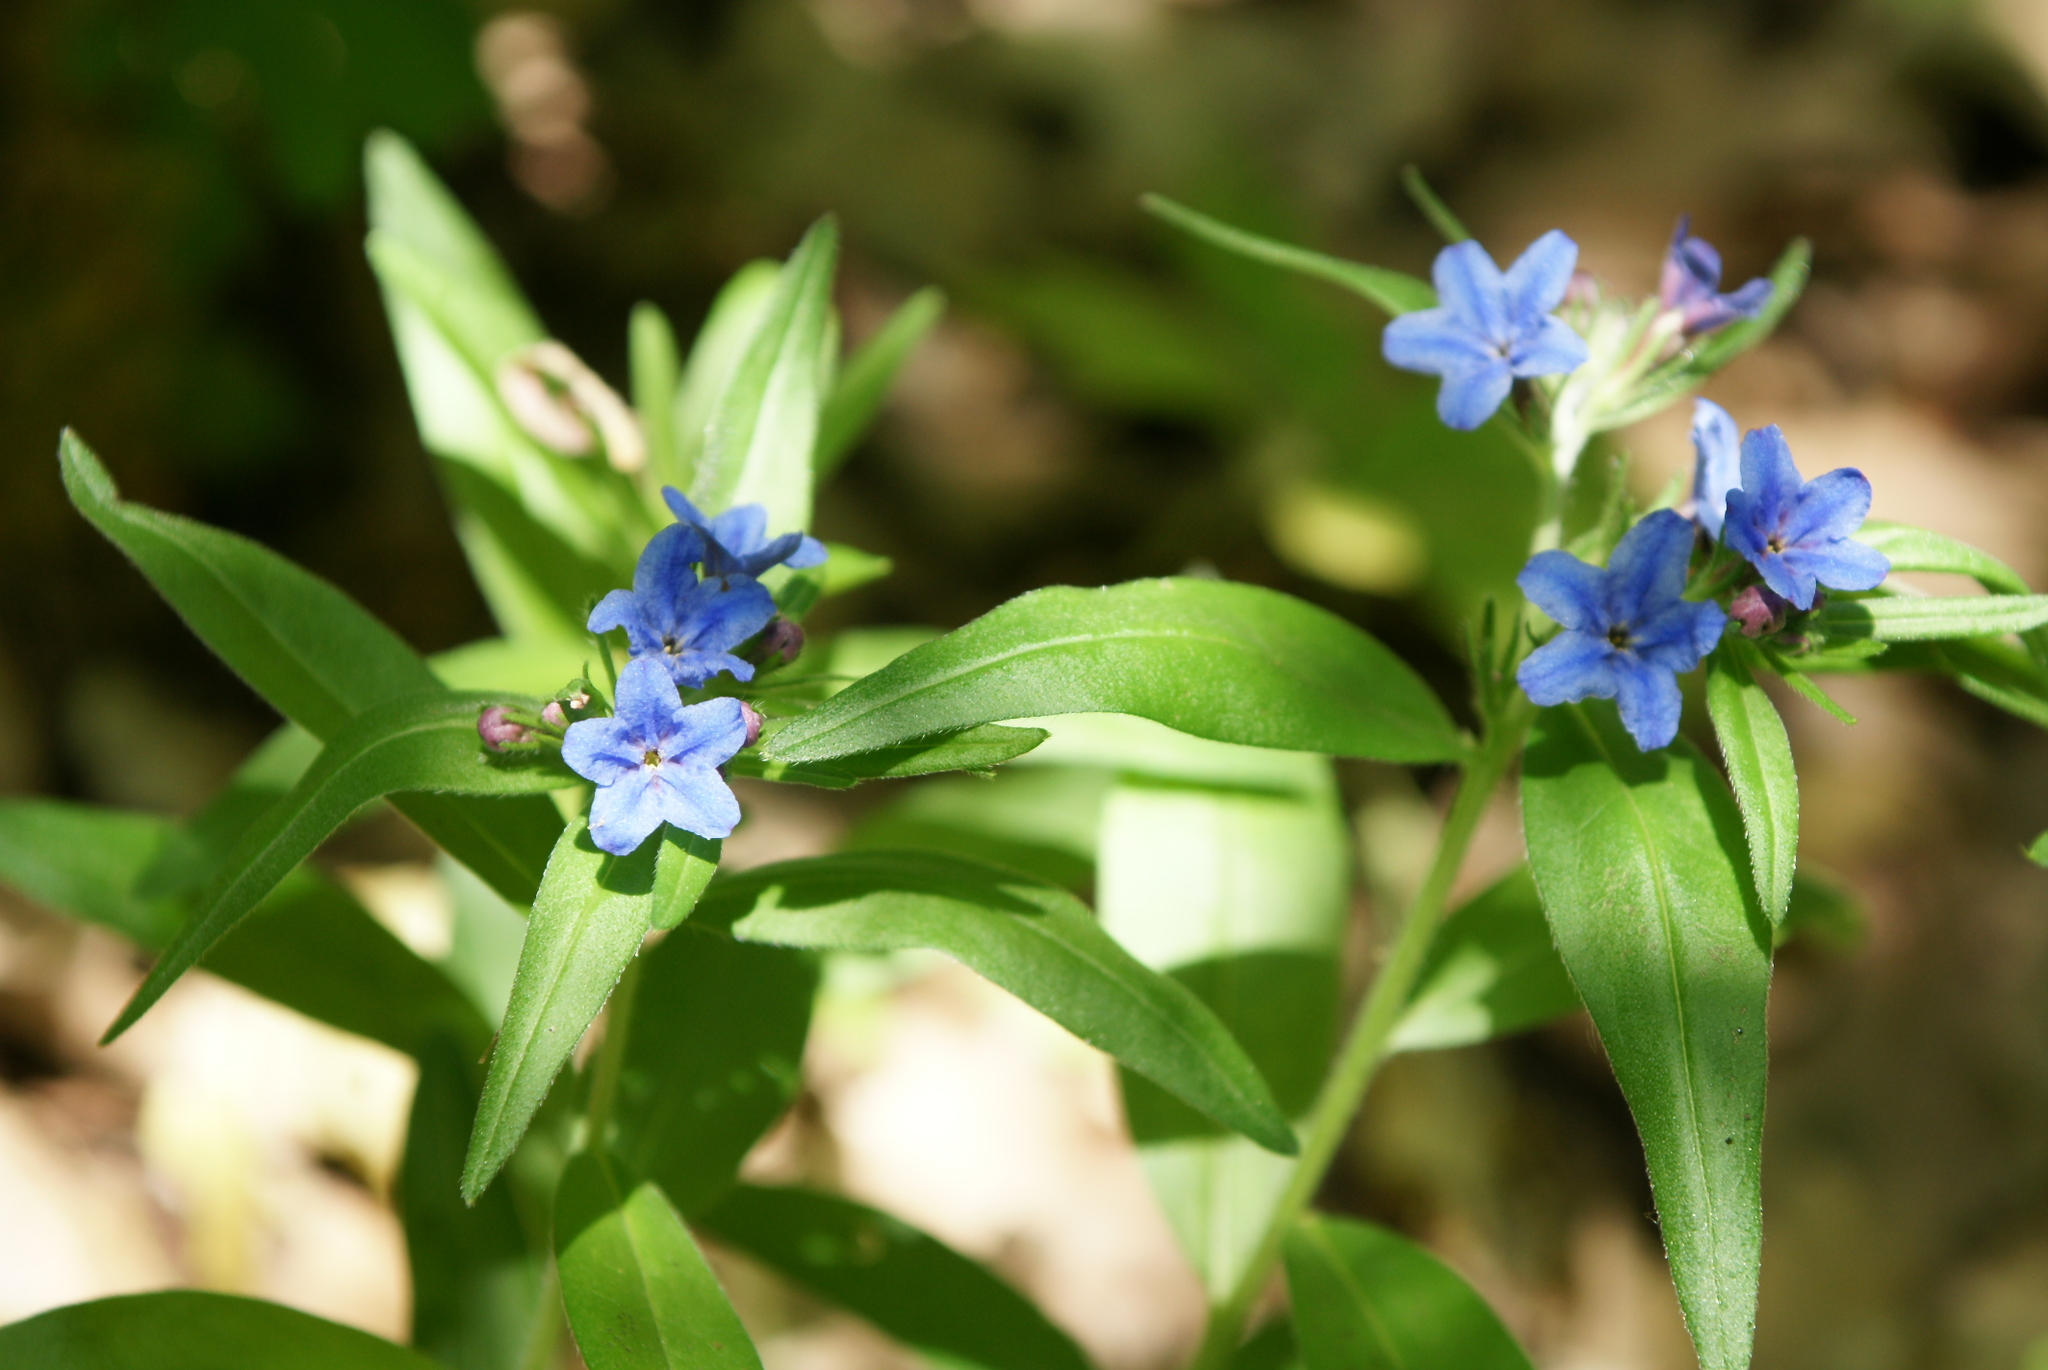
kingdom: Plantae
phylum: Tracheophyta
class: Magnoliopsida
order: Boraginales
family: Boraginaceae
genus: Aegonychon
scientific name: Aegonychon purpurocaeruleum
